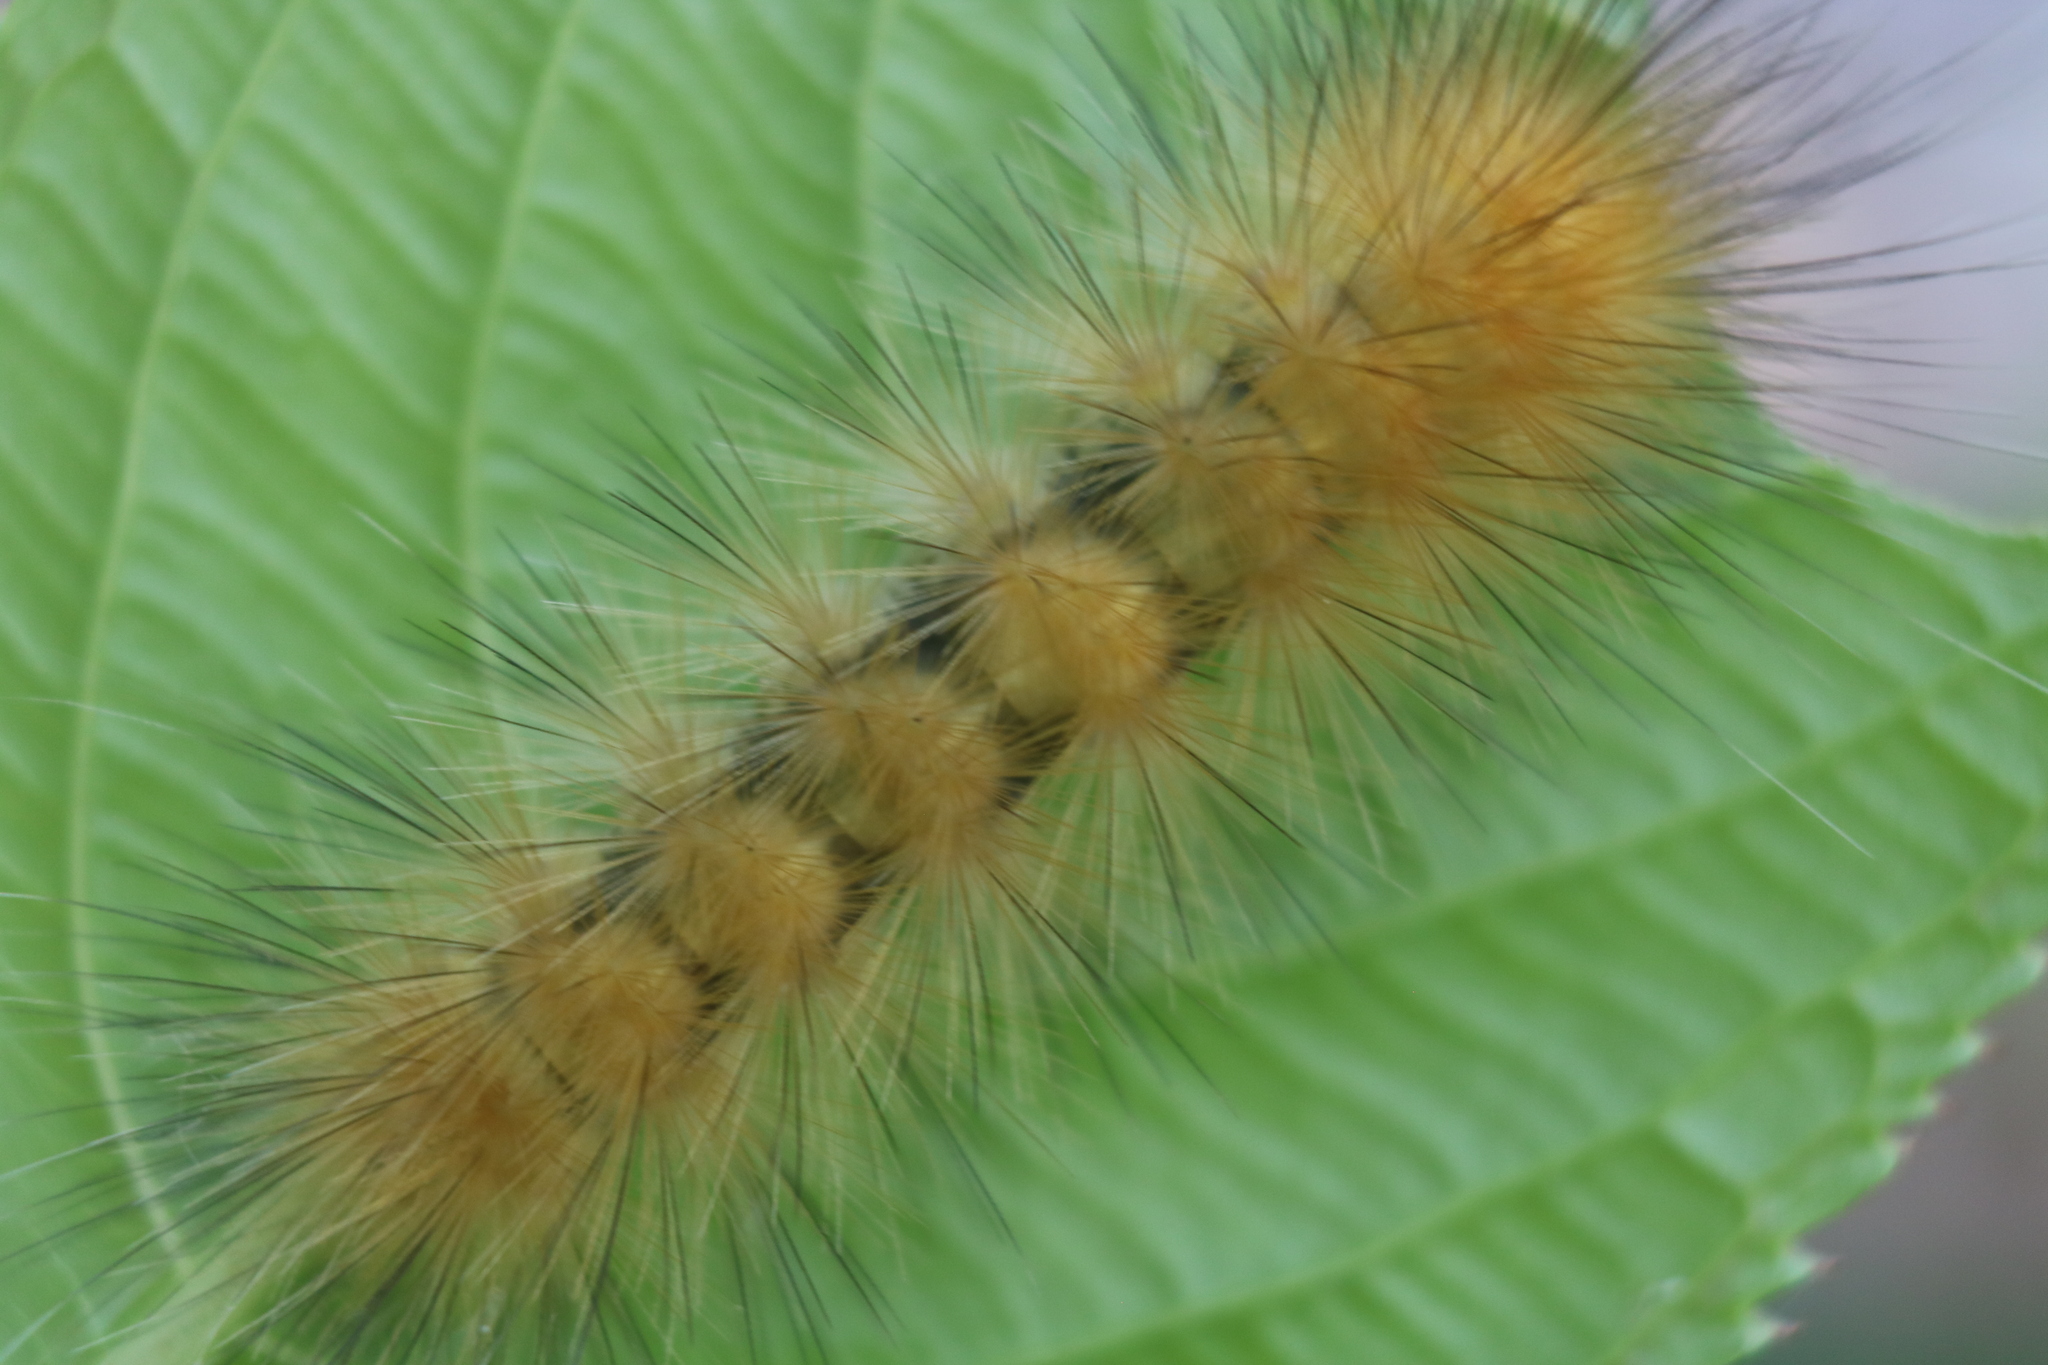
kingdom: Animalia
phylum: Arthropoda
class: Insecta
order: Lepidoptera
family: Erebidae
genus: Spilosoma
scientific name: Spilosoma virginica
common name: Virginia tiger moth
